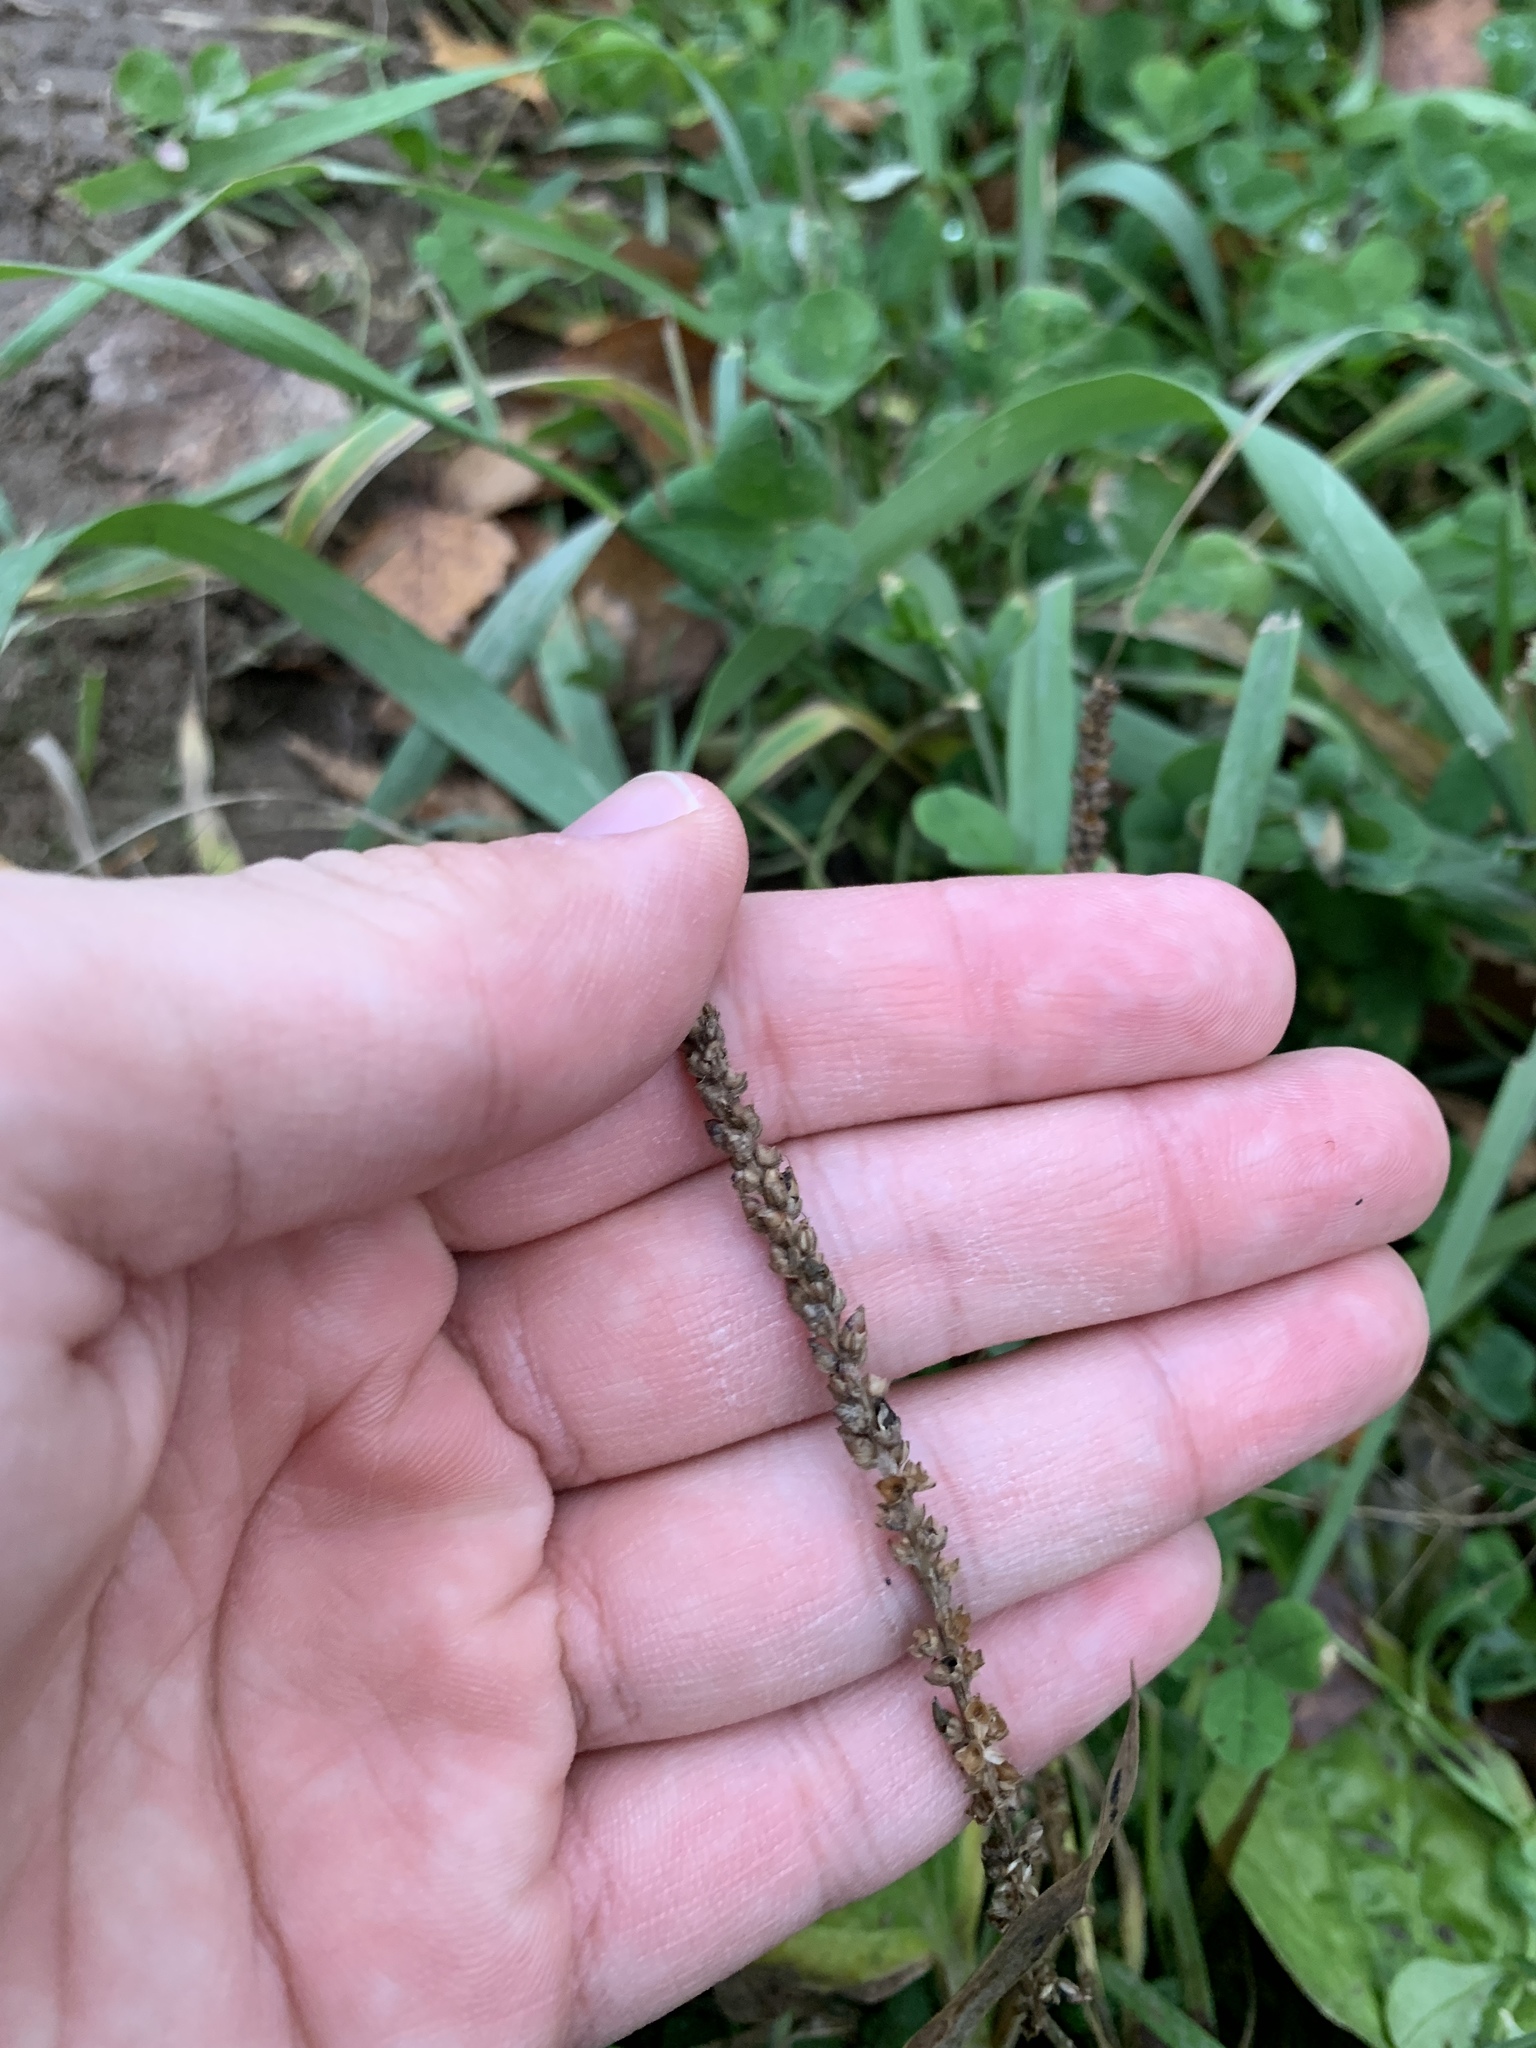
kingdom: Plantae
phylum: Tracheophyta
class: Magnoliopsida
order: Lamiales
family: Plantaginaceae
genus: Plantago
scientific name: Plantago major
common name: Common plantain
